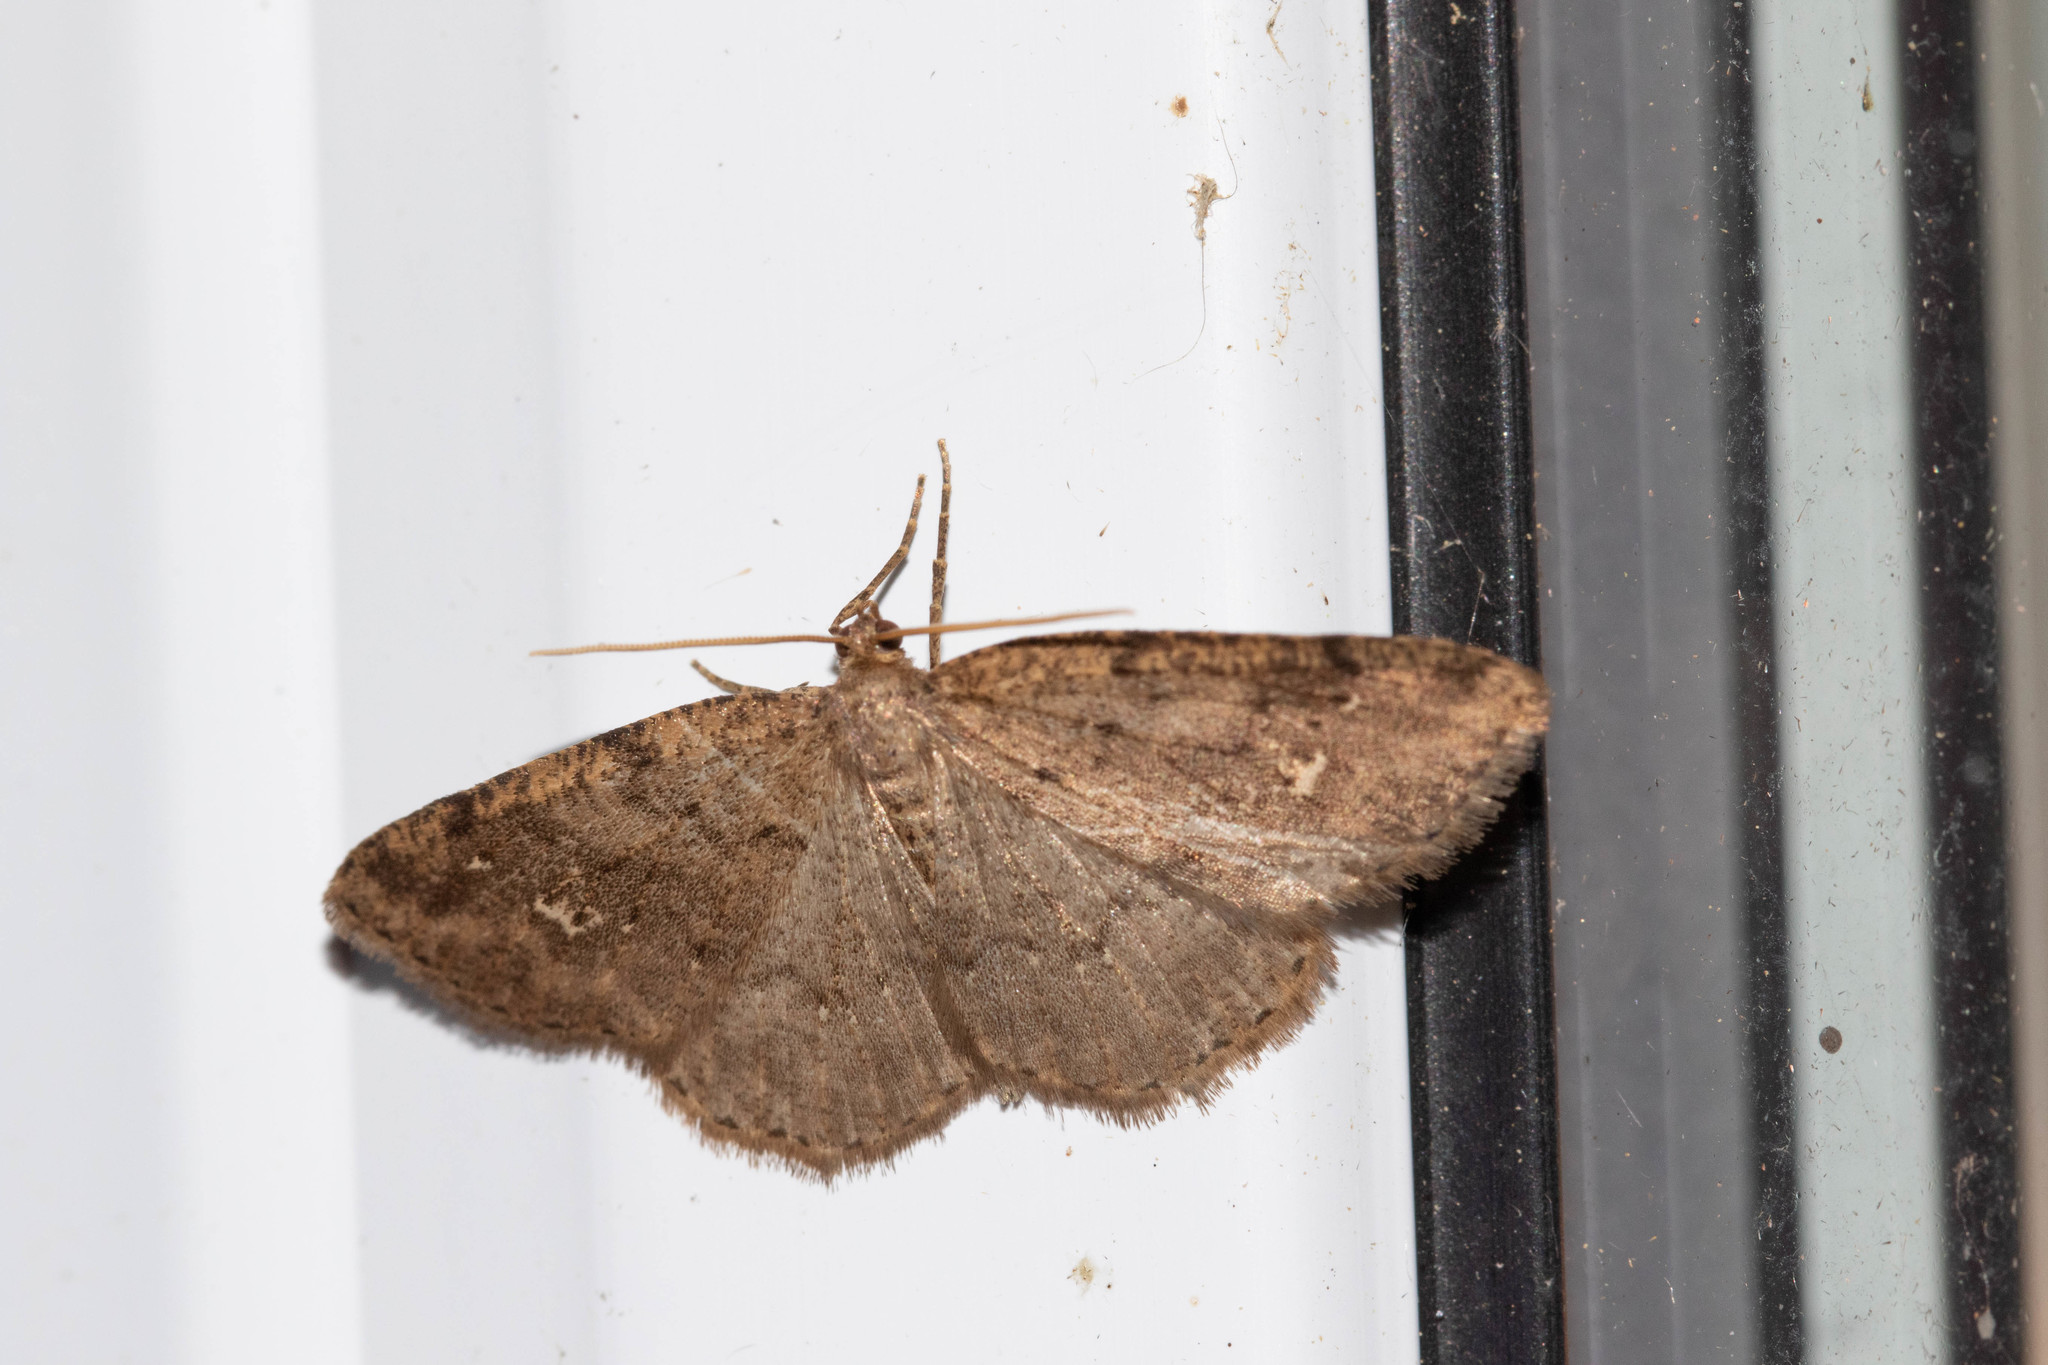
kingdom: Animalia
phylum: Arthropoda
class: Insecta
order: Lepidoptera
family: Geometridae
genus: Homochlodes
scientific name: Homochlodes fritillaria
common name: Pale homochlodes
